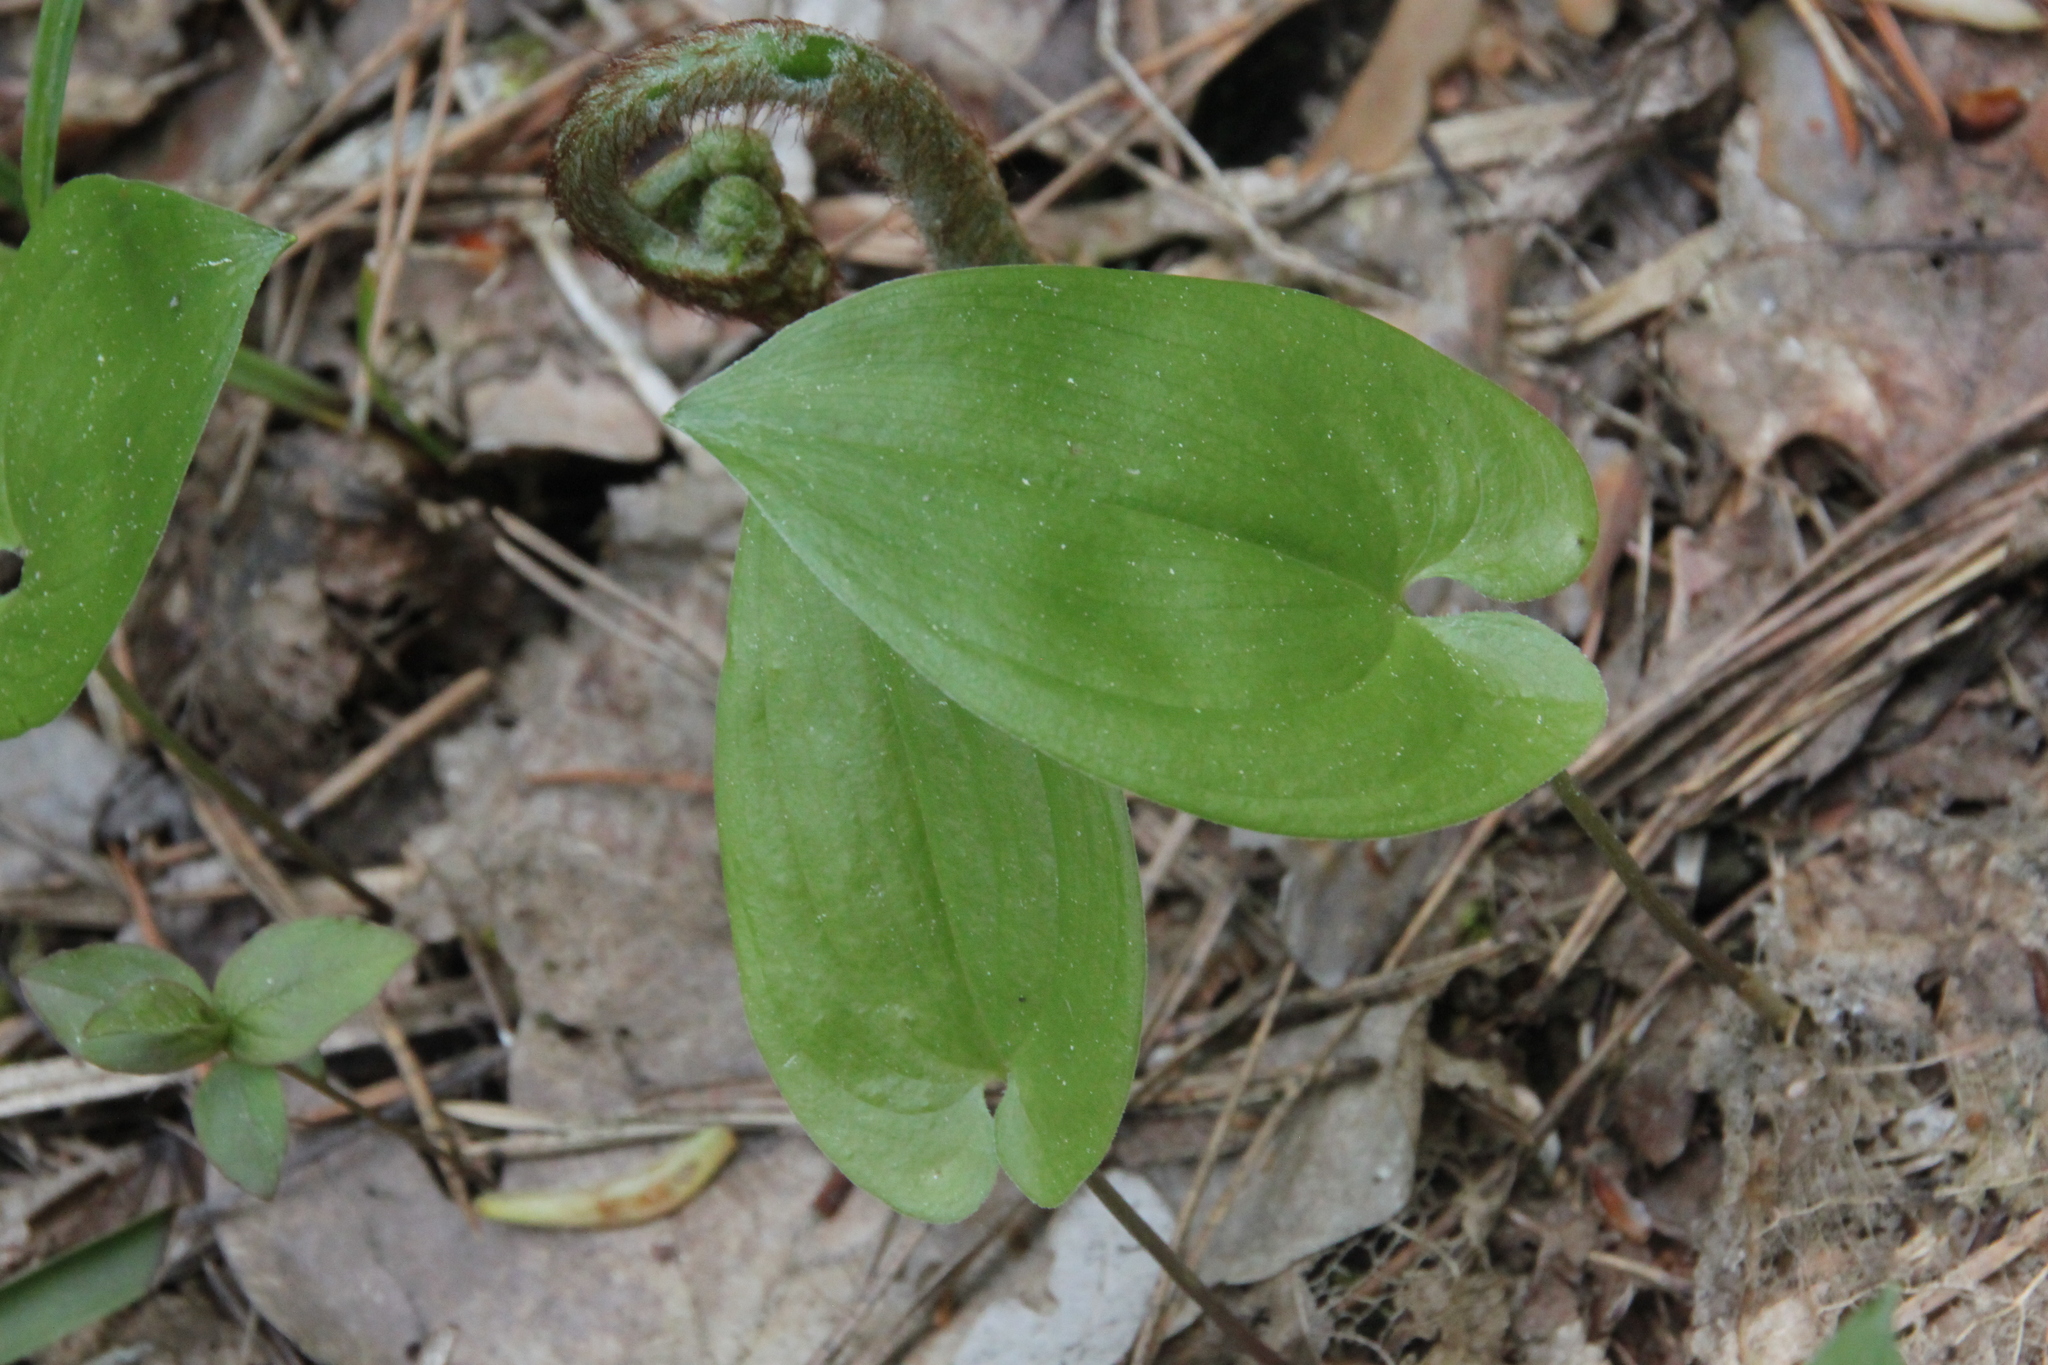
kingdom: Plantae
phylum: Tracheophyta
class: Liliopsida
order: Asparagales
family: Asparagaceae
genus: Maianthemum
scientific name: Maianthemum bifolium
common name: May lily
